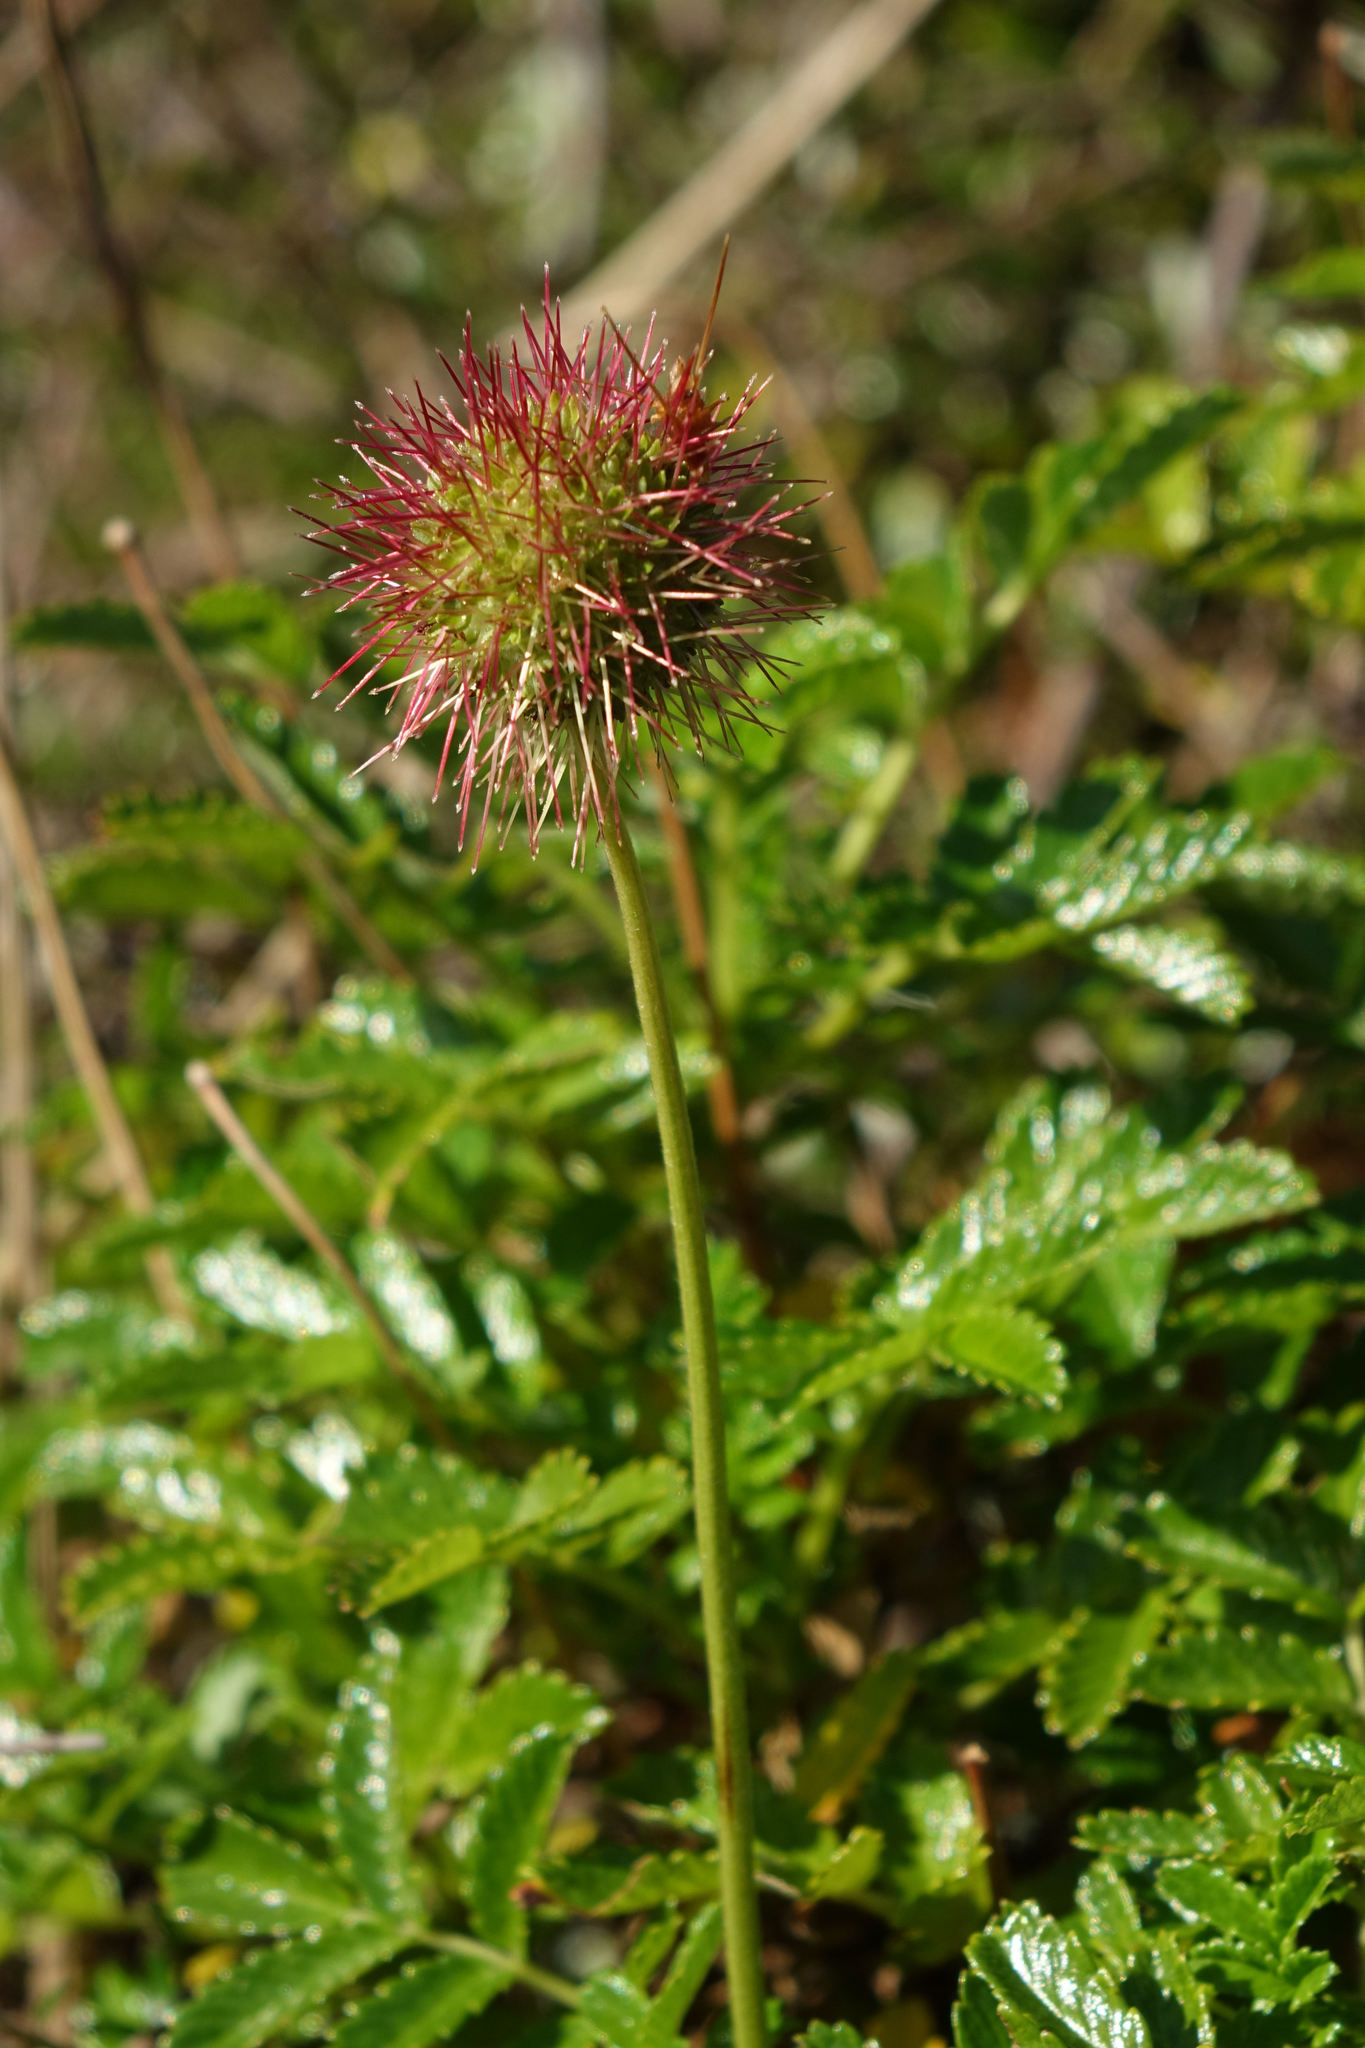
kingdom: Plantae
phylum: Tracheophyta
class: Magnoliopsida
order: Rosales
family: Rosaceae
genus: Acaena
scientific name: Acaena pallida
